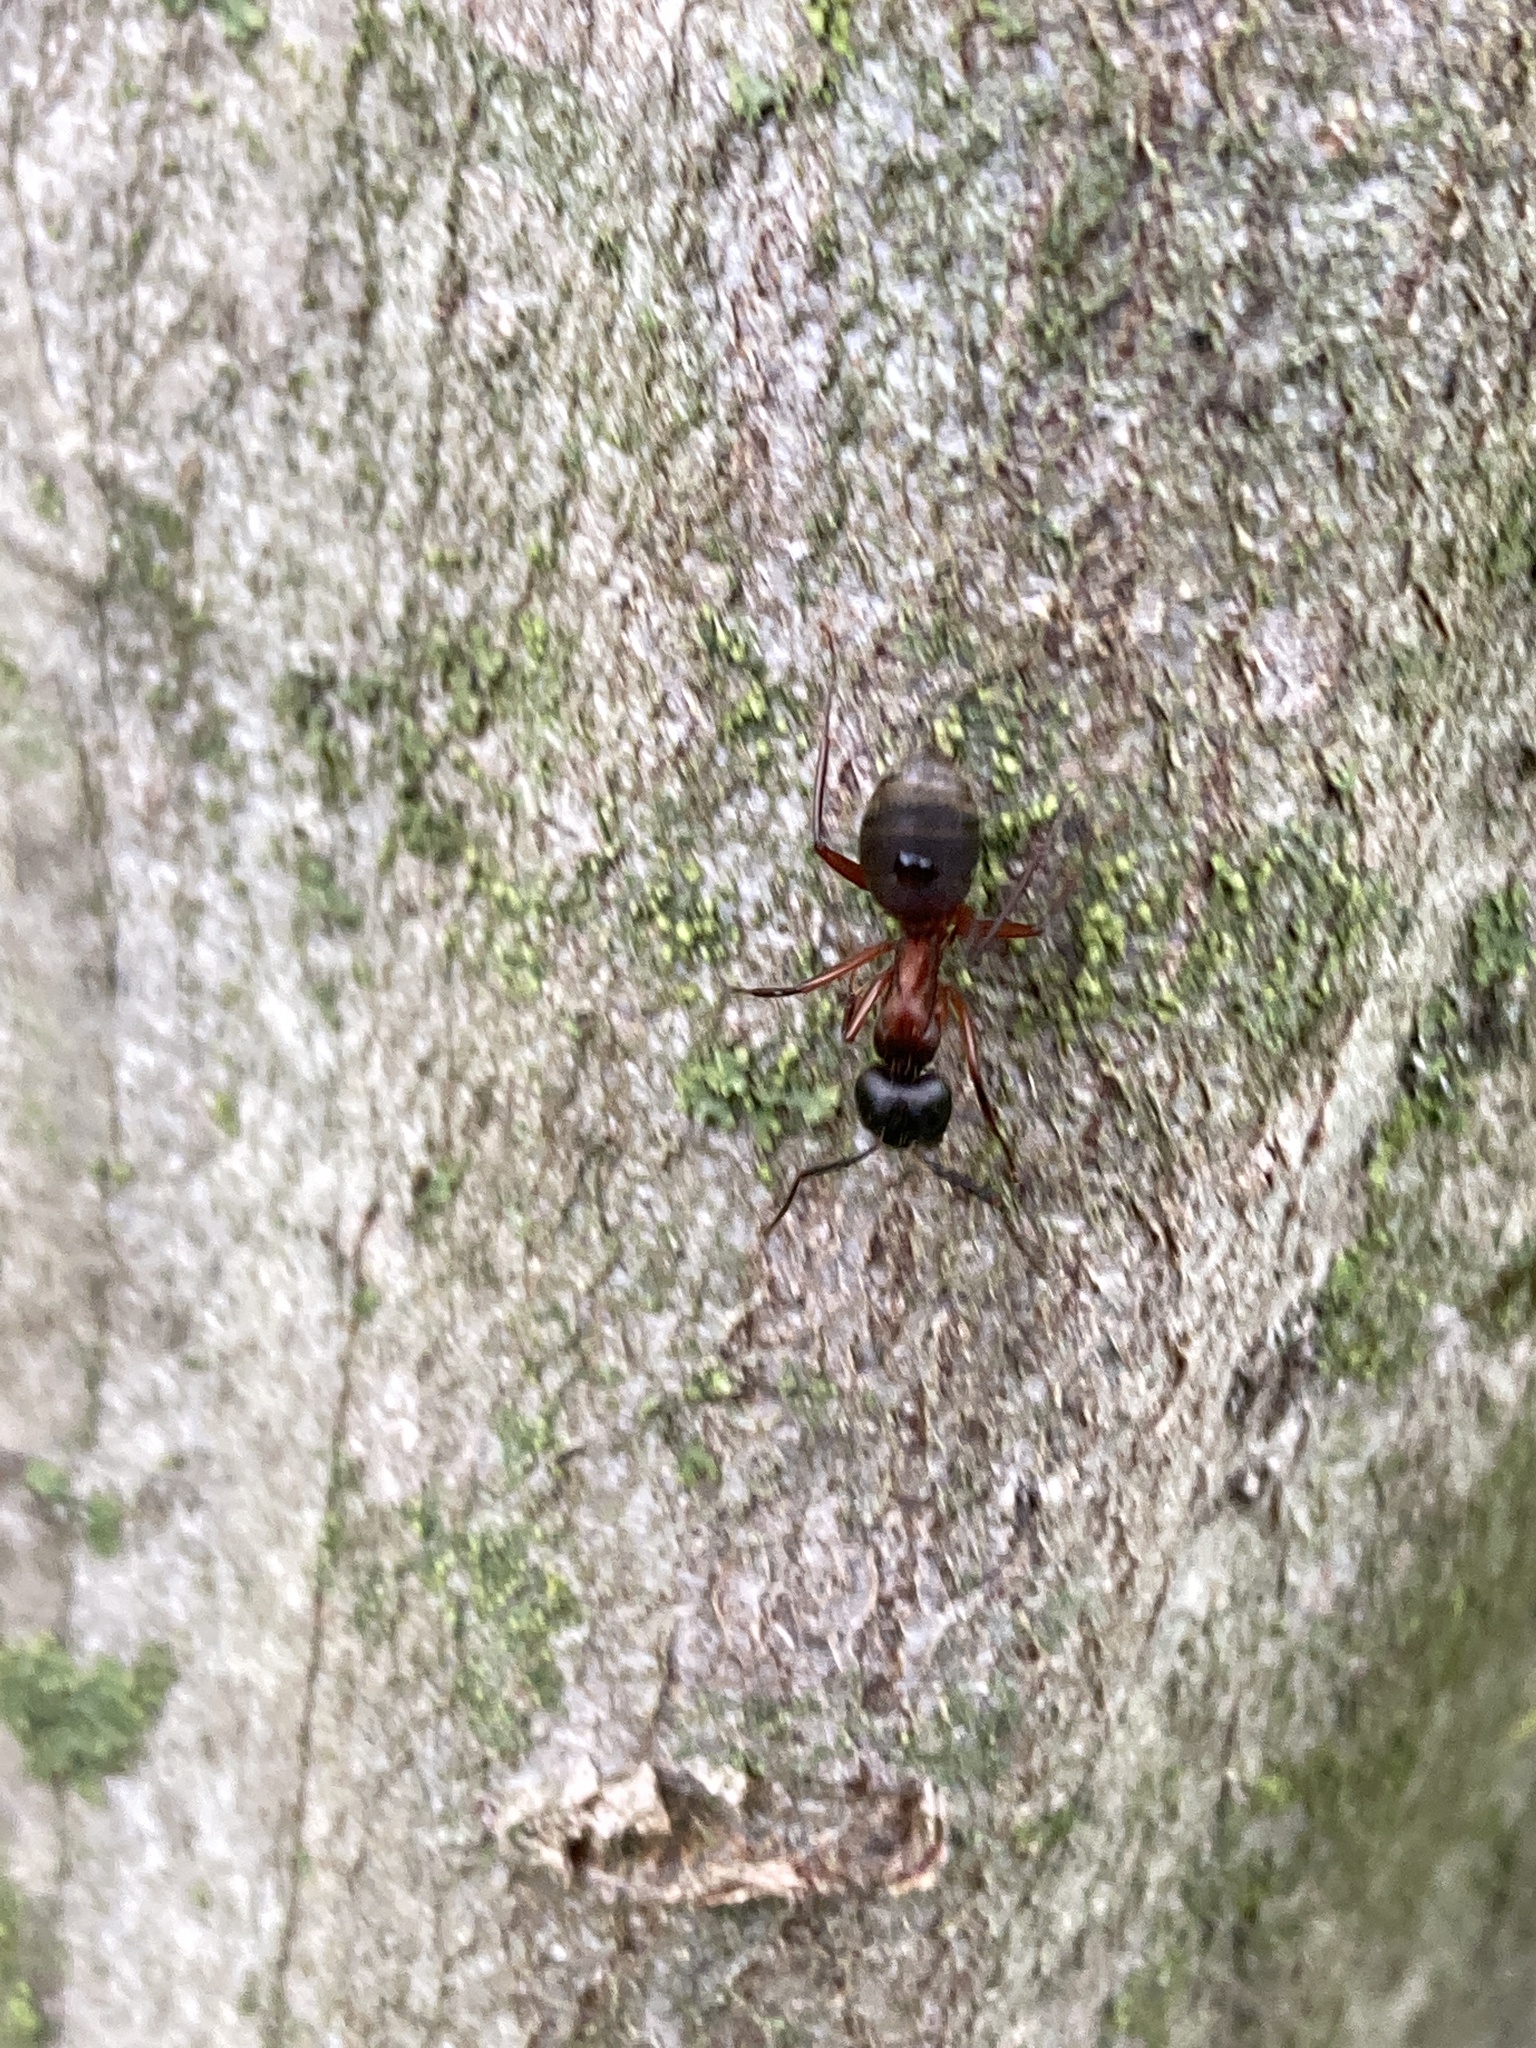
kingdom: Animalia
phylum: Arthropoda
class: Insecta
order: Hymenoptera
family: Formicidae
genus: Camponotus
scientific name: Camponotus chromaiodes
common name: Red carpenter ant
